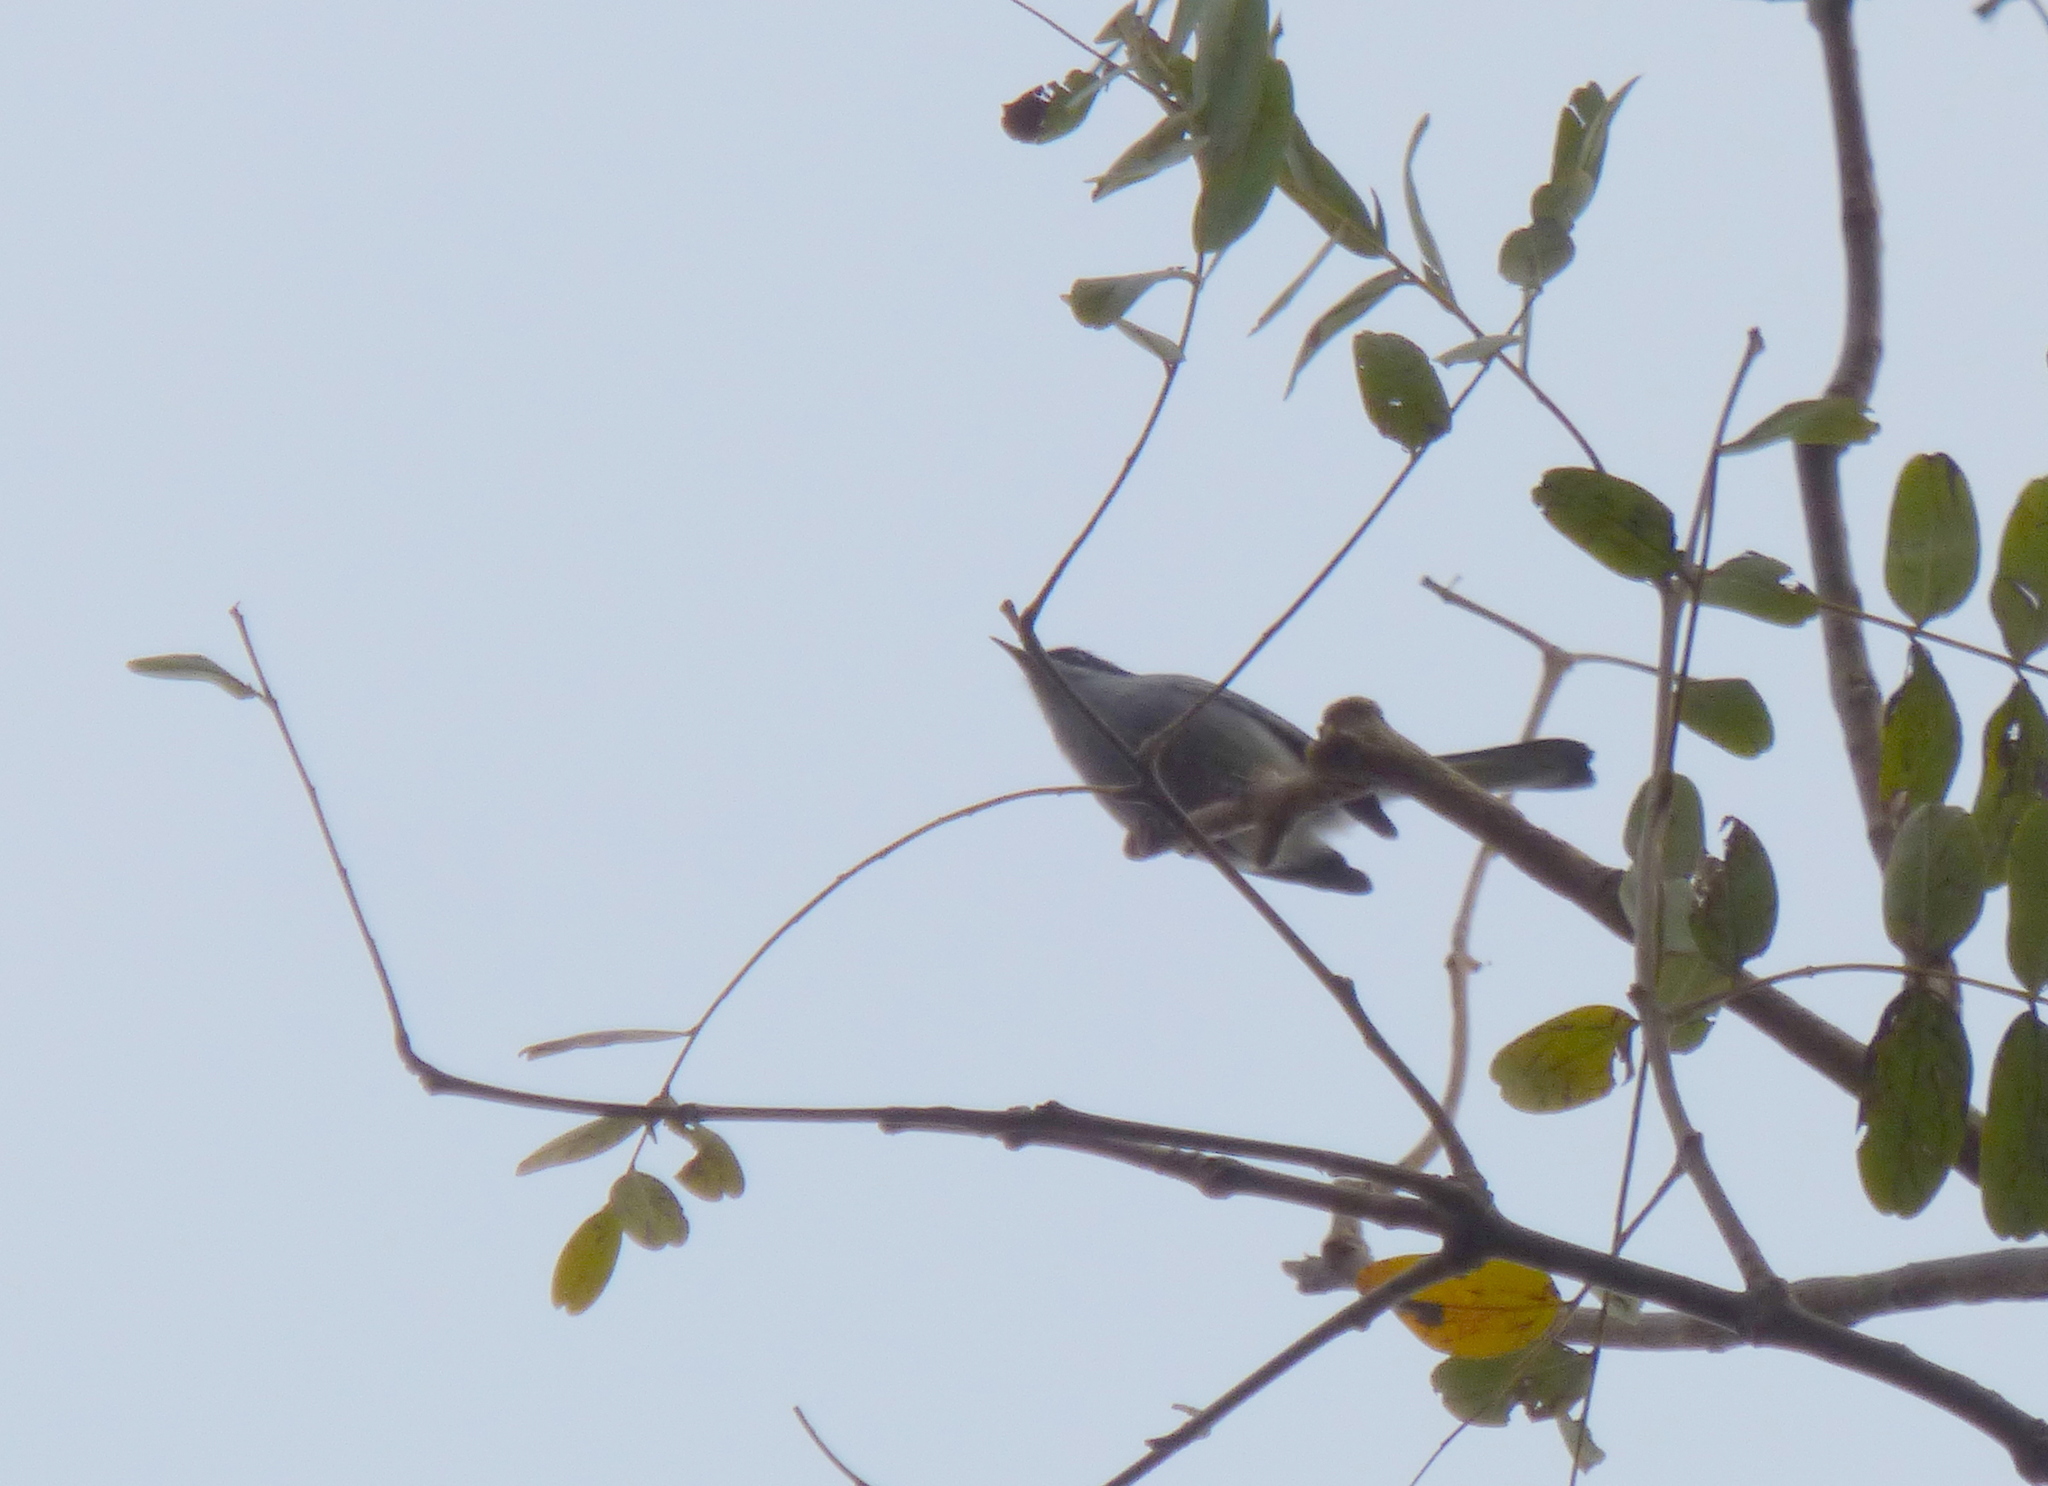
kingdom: Animalia
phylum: Chordata
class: Aves
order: Passeriformes
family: Polioptilidae
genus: Polioptila
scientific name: Polioptila dumicola
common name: Masked gnatcatcher
